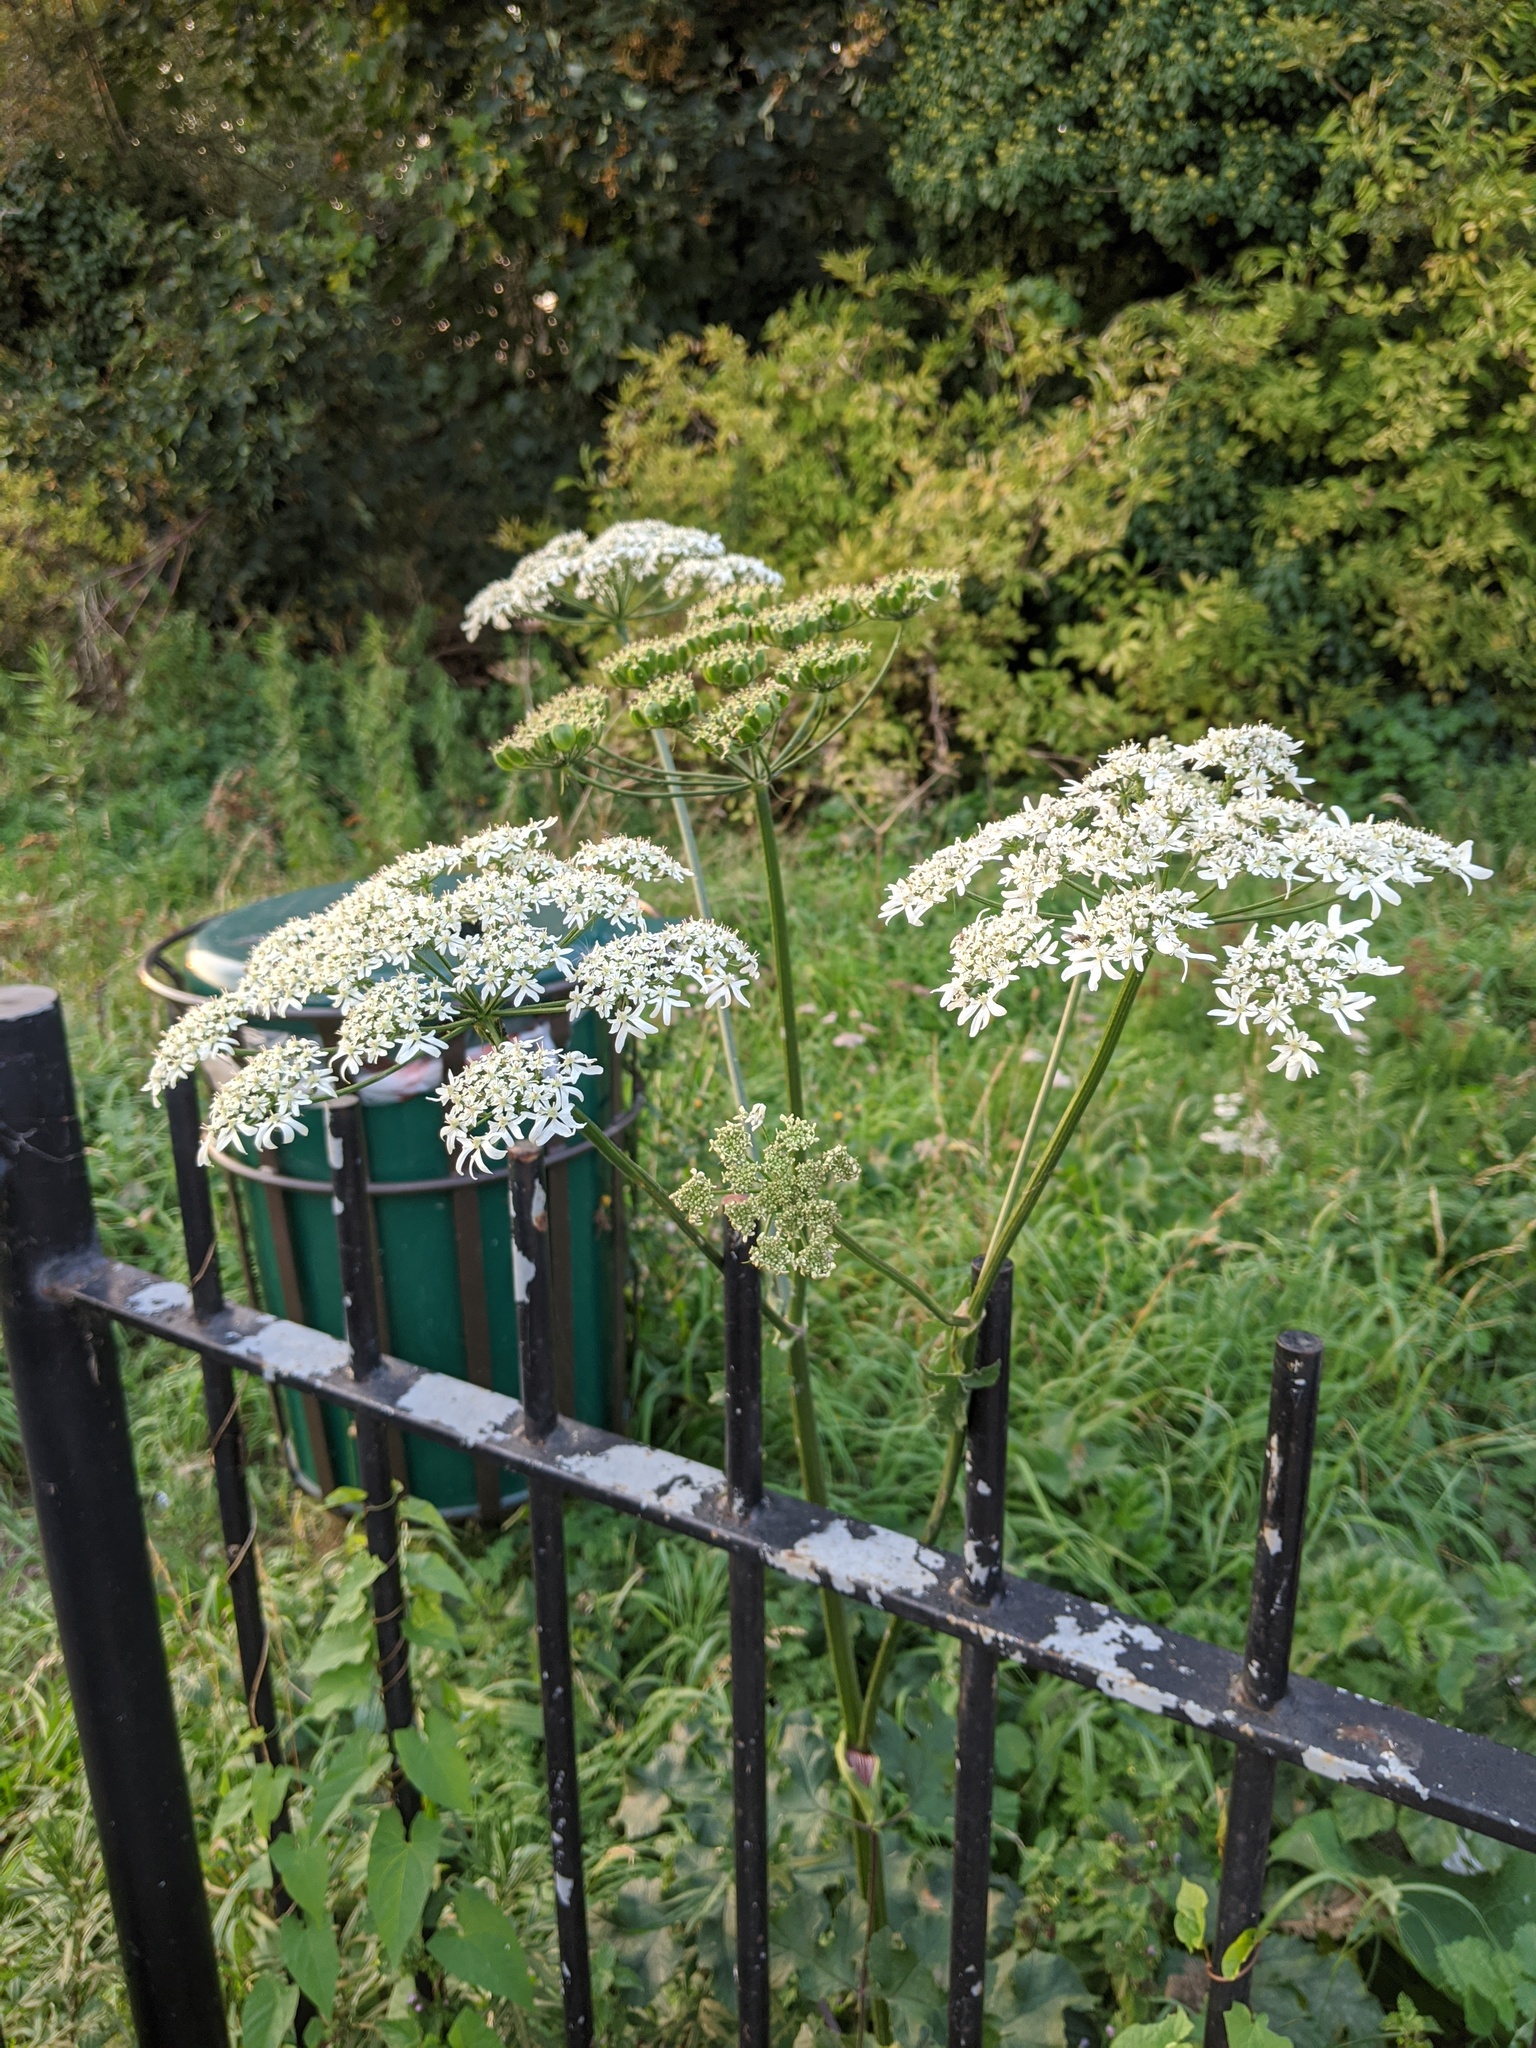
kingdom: Plantae
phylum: Tracheophyta
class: Magnoliopsida
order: Apiales
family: Apiaceae
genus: Heracleum
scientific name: Heracleum sphondylium
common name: Hogweed
